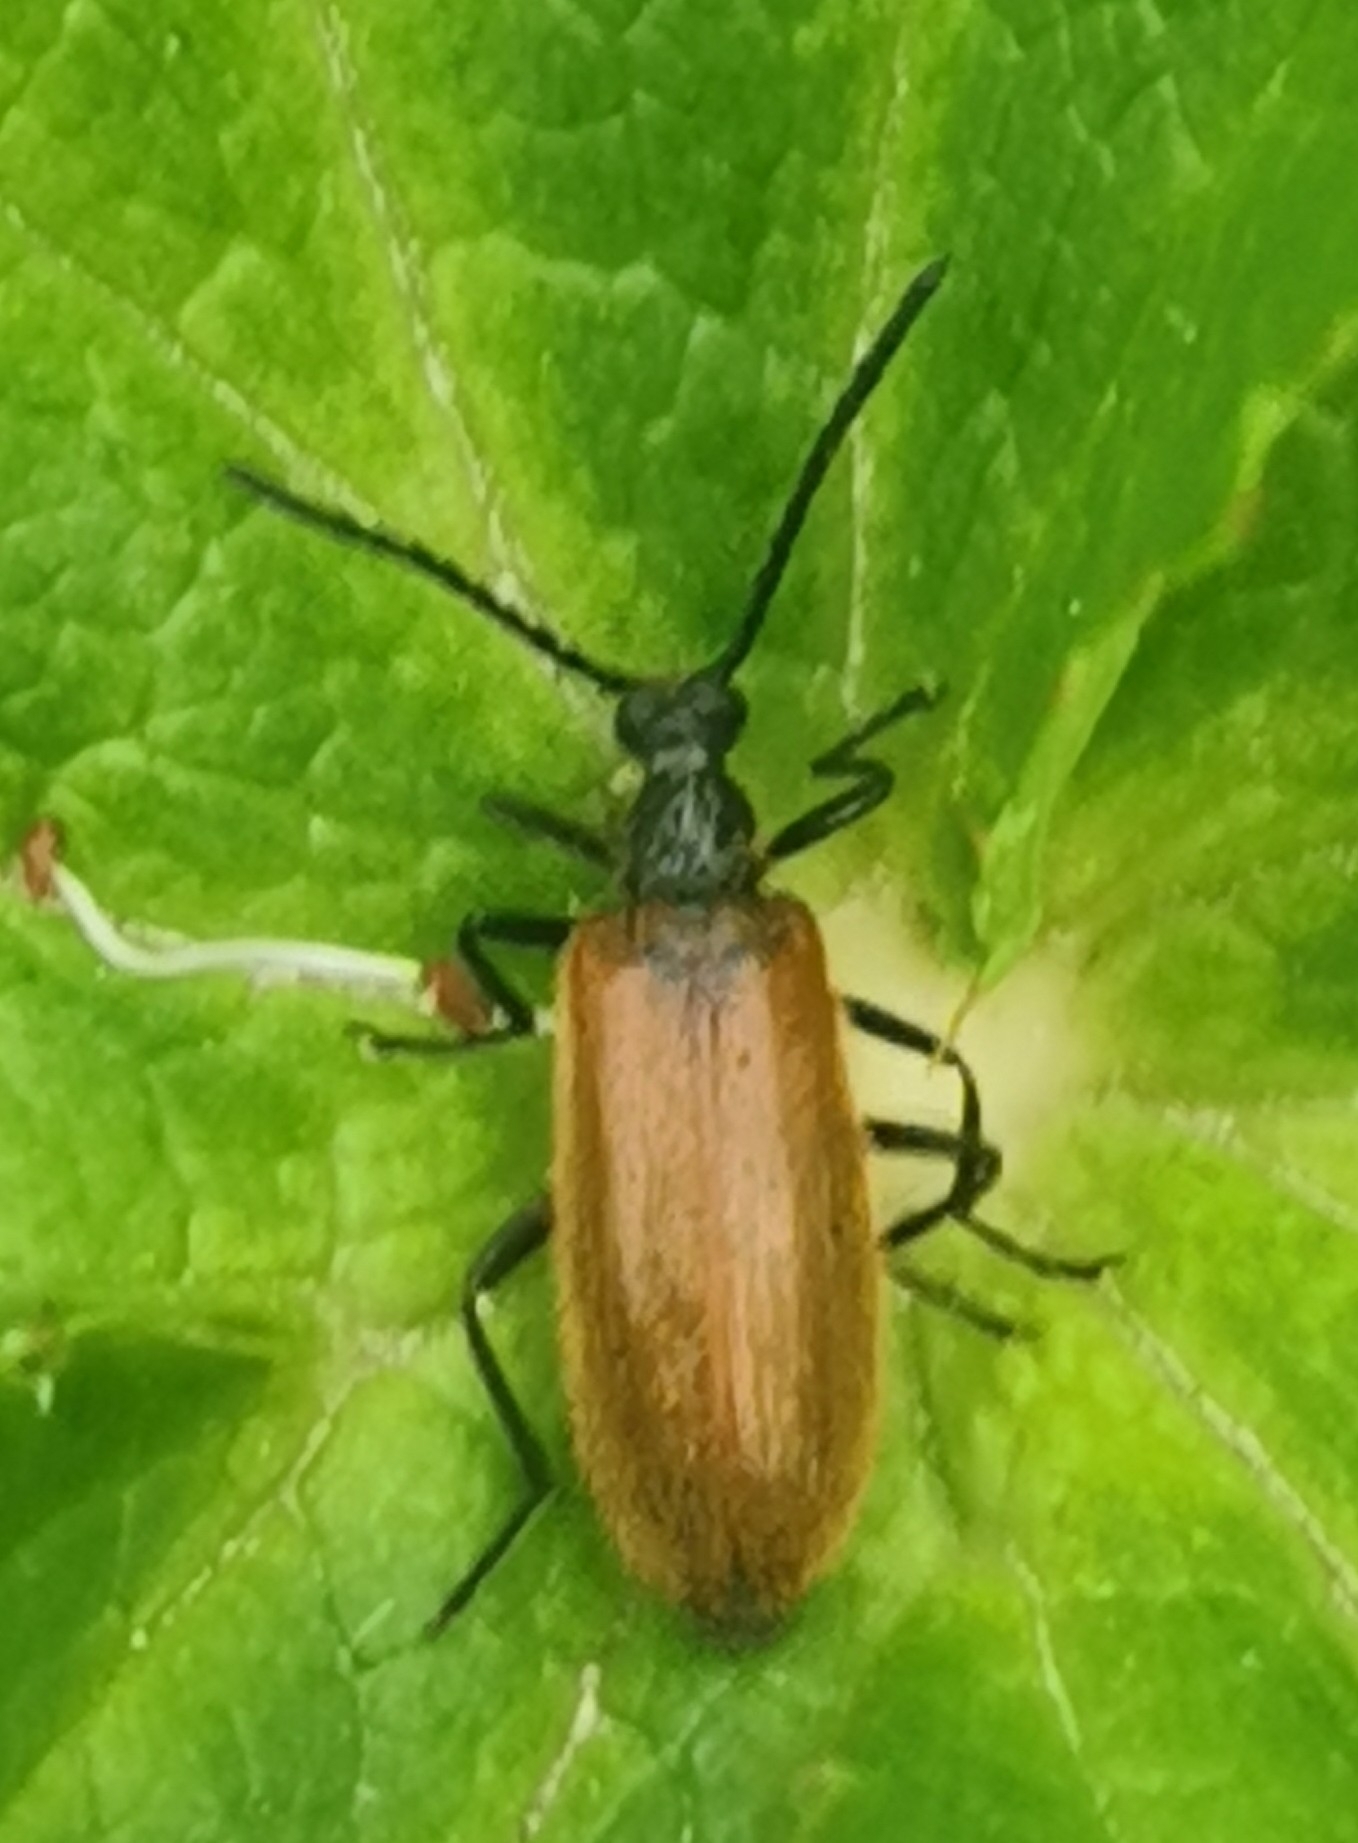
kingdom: Animalia
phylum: Arthropoda
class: Insecta
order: Coleoptera
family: Tenebrionidae
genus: Lagria
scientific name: Lagria hirta
